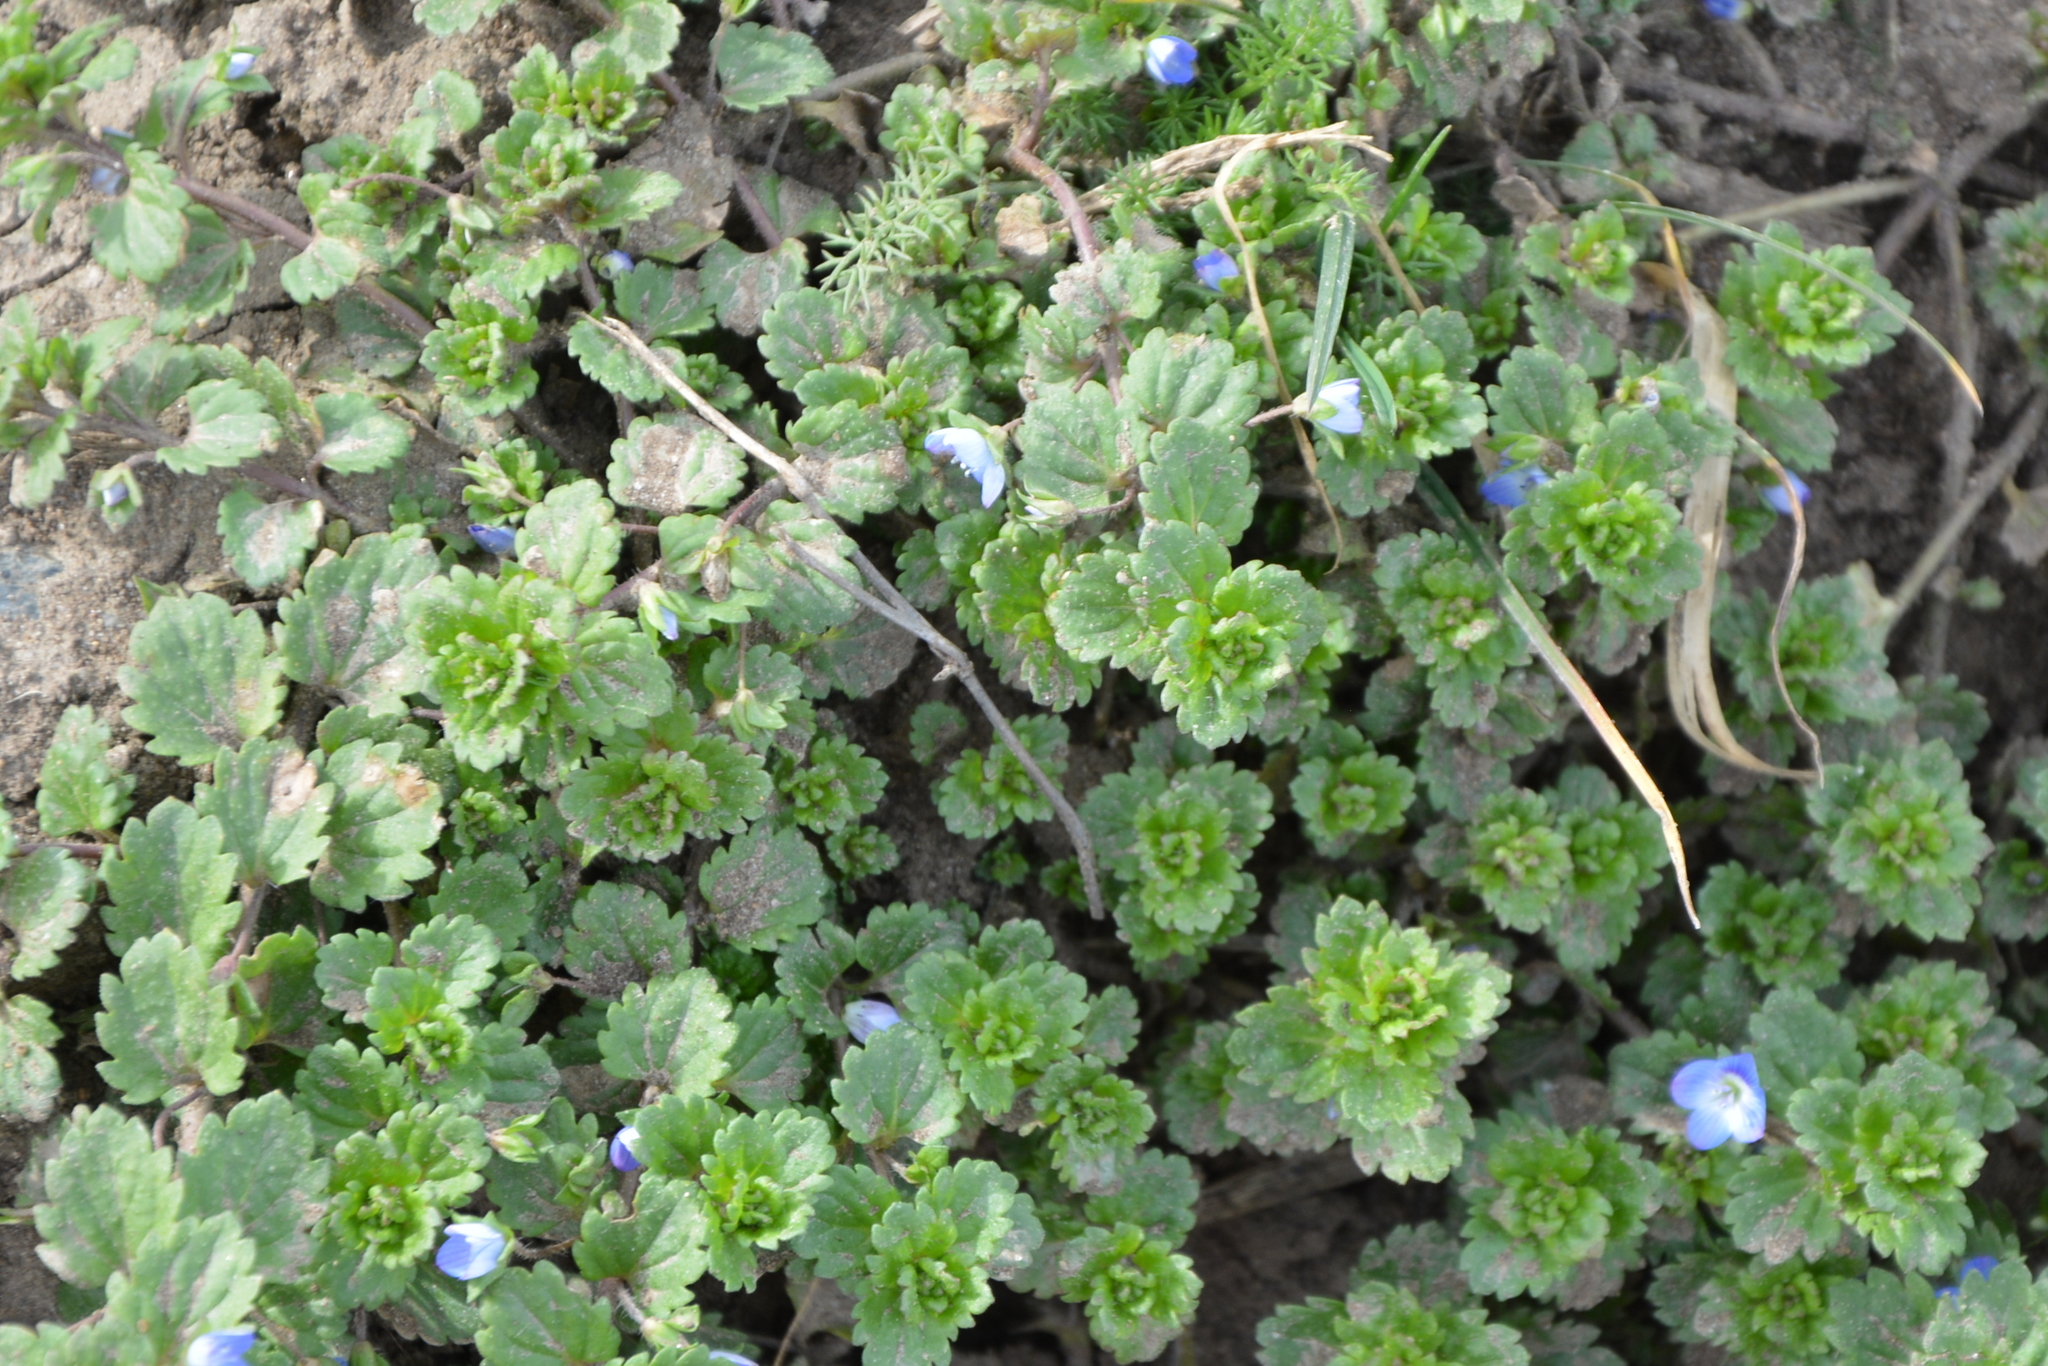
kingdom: Plantae
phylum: Tracheophyta
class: Magnoliopsida
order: Lamiales
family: Plantaginaceae
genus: Veronica
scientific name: Veronica persica
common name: Common field-speedwell
